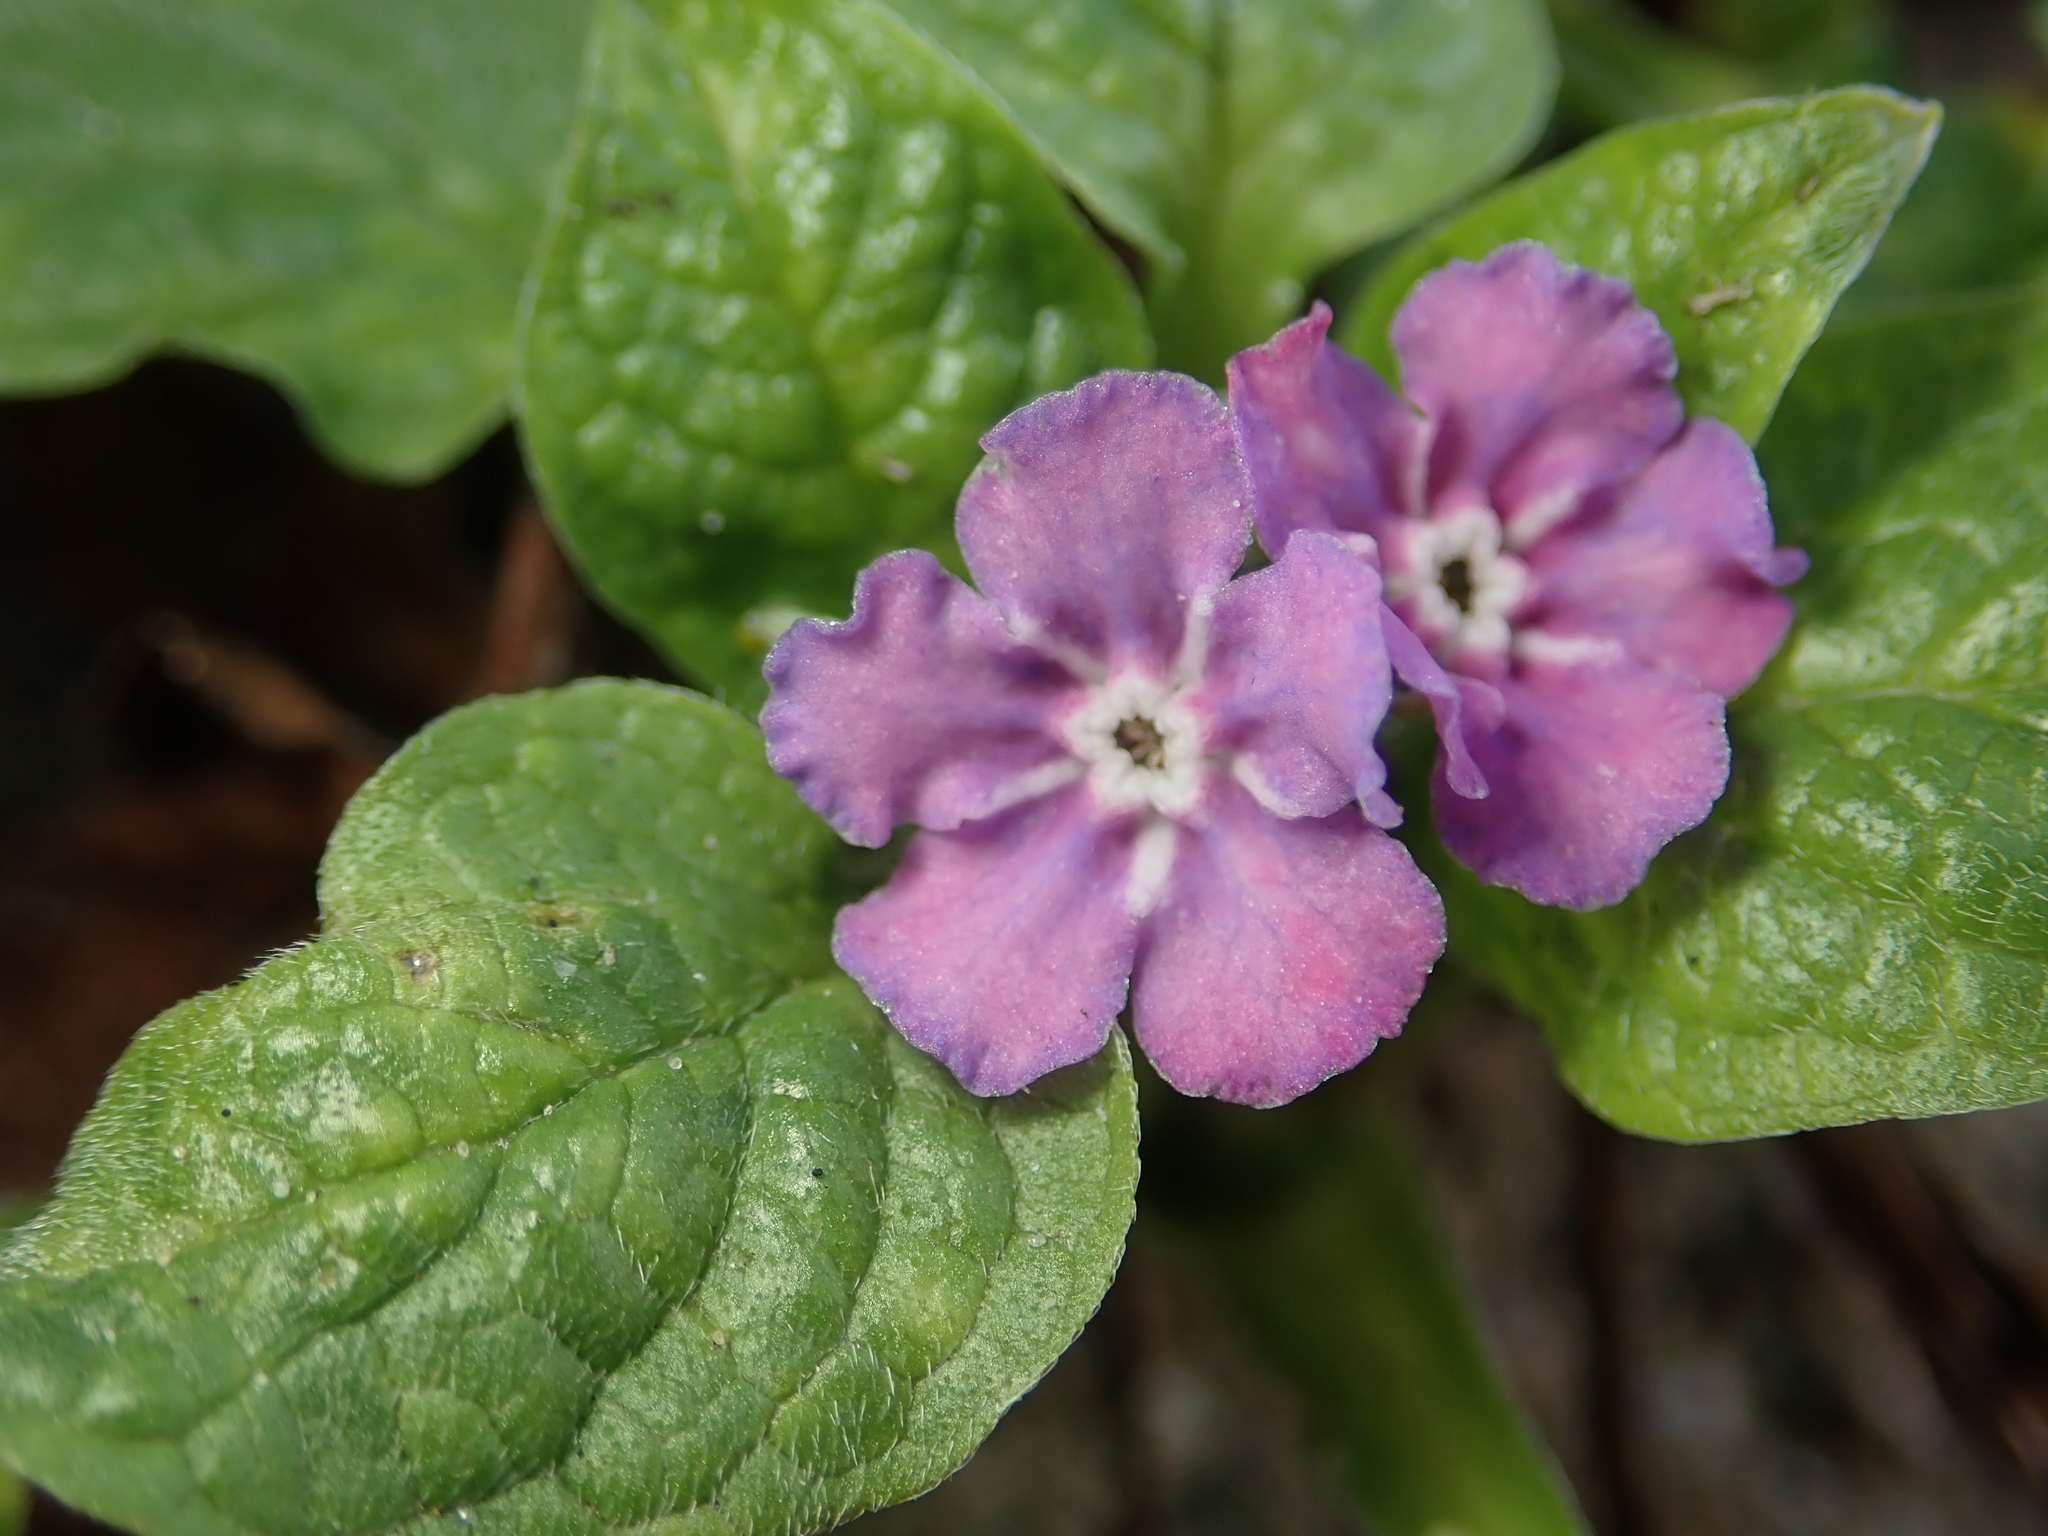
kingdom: Plantae
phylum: Tracheophyta
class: Magnoliopsida
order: Boraginales
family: Boraginaceae
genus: Omphalodes
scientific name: Omphalodes verna
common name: Blue-eyed-mary
